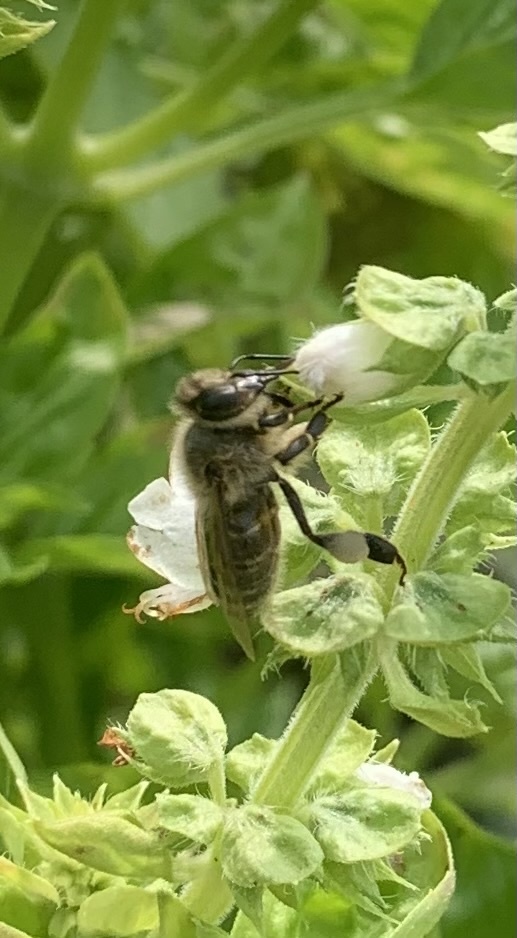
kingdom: Animalia
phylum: Arthropoda
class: Insecta
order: Hymenoptera
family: Apidae
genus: Apis
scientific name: Apis mellifera
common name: Honey bee
